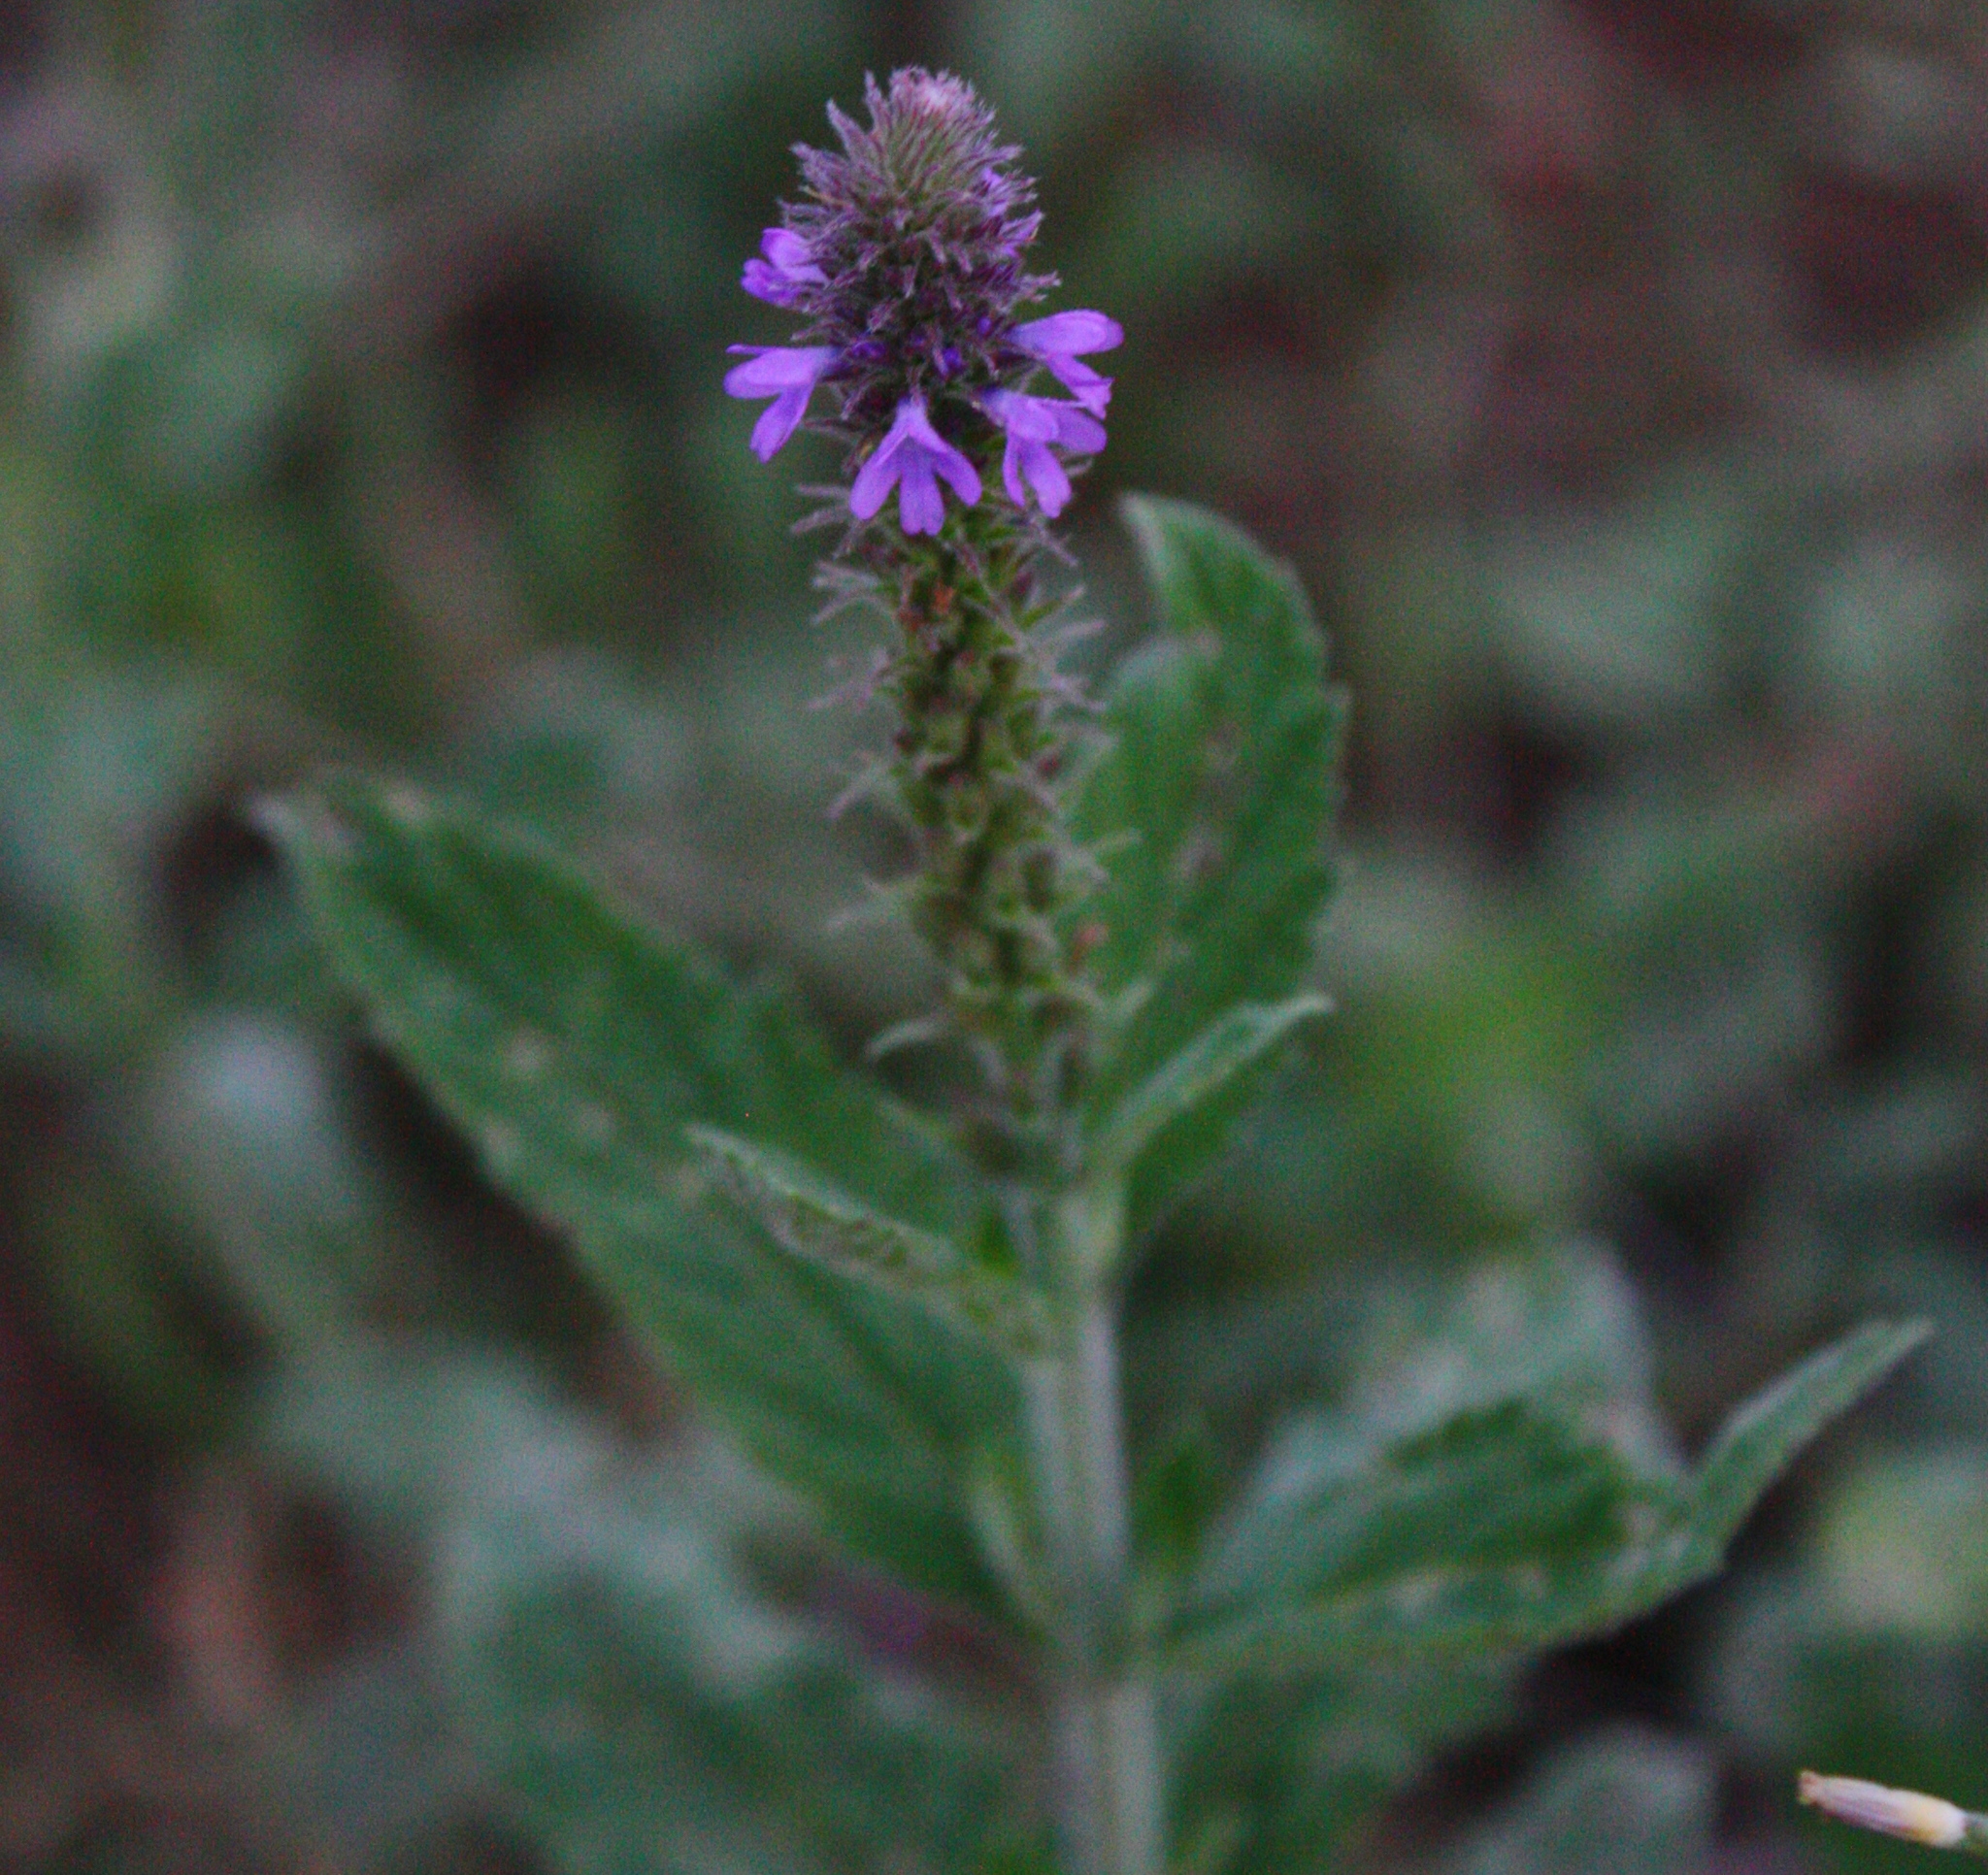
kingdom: Plantae
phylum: Tracheophyta
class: Magnoliopsida
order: Lamiales
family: Verbenaceae
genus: Verbena
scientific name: Verbena macdougalii
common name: New mexico vervain
